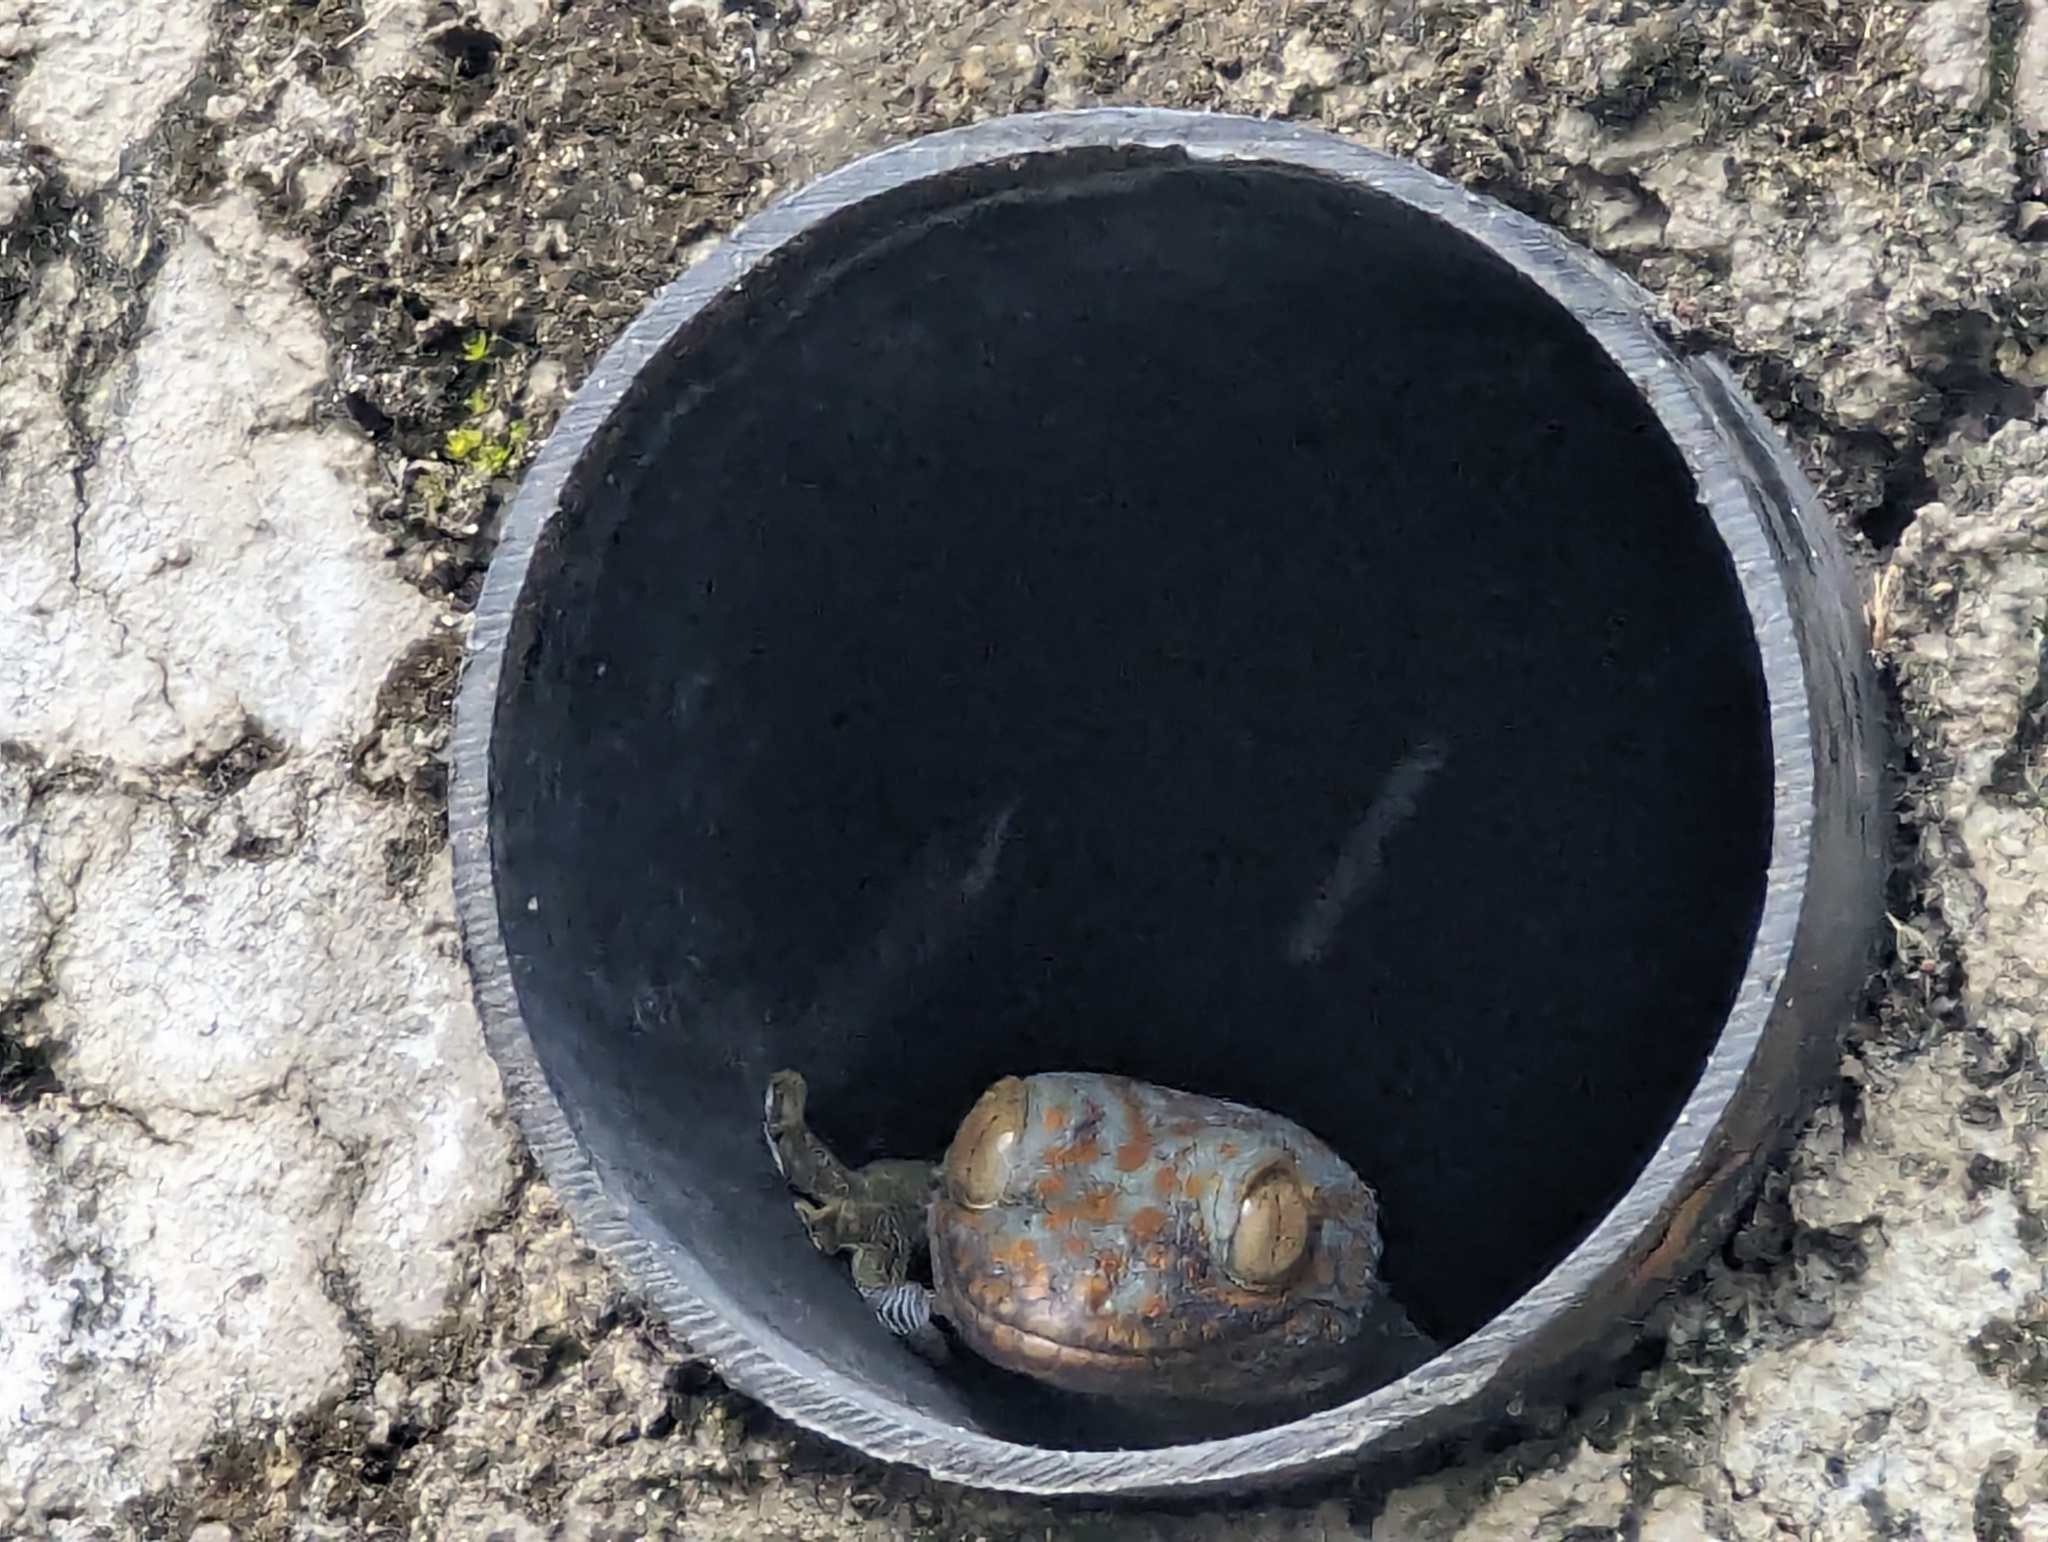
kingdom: Animalia
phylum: Chordata
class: Squamata
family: Gekkonidae
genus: Gekko
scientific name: Gekko gecko
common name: Tokay gecko
